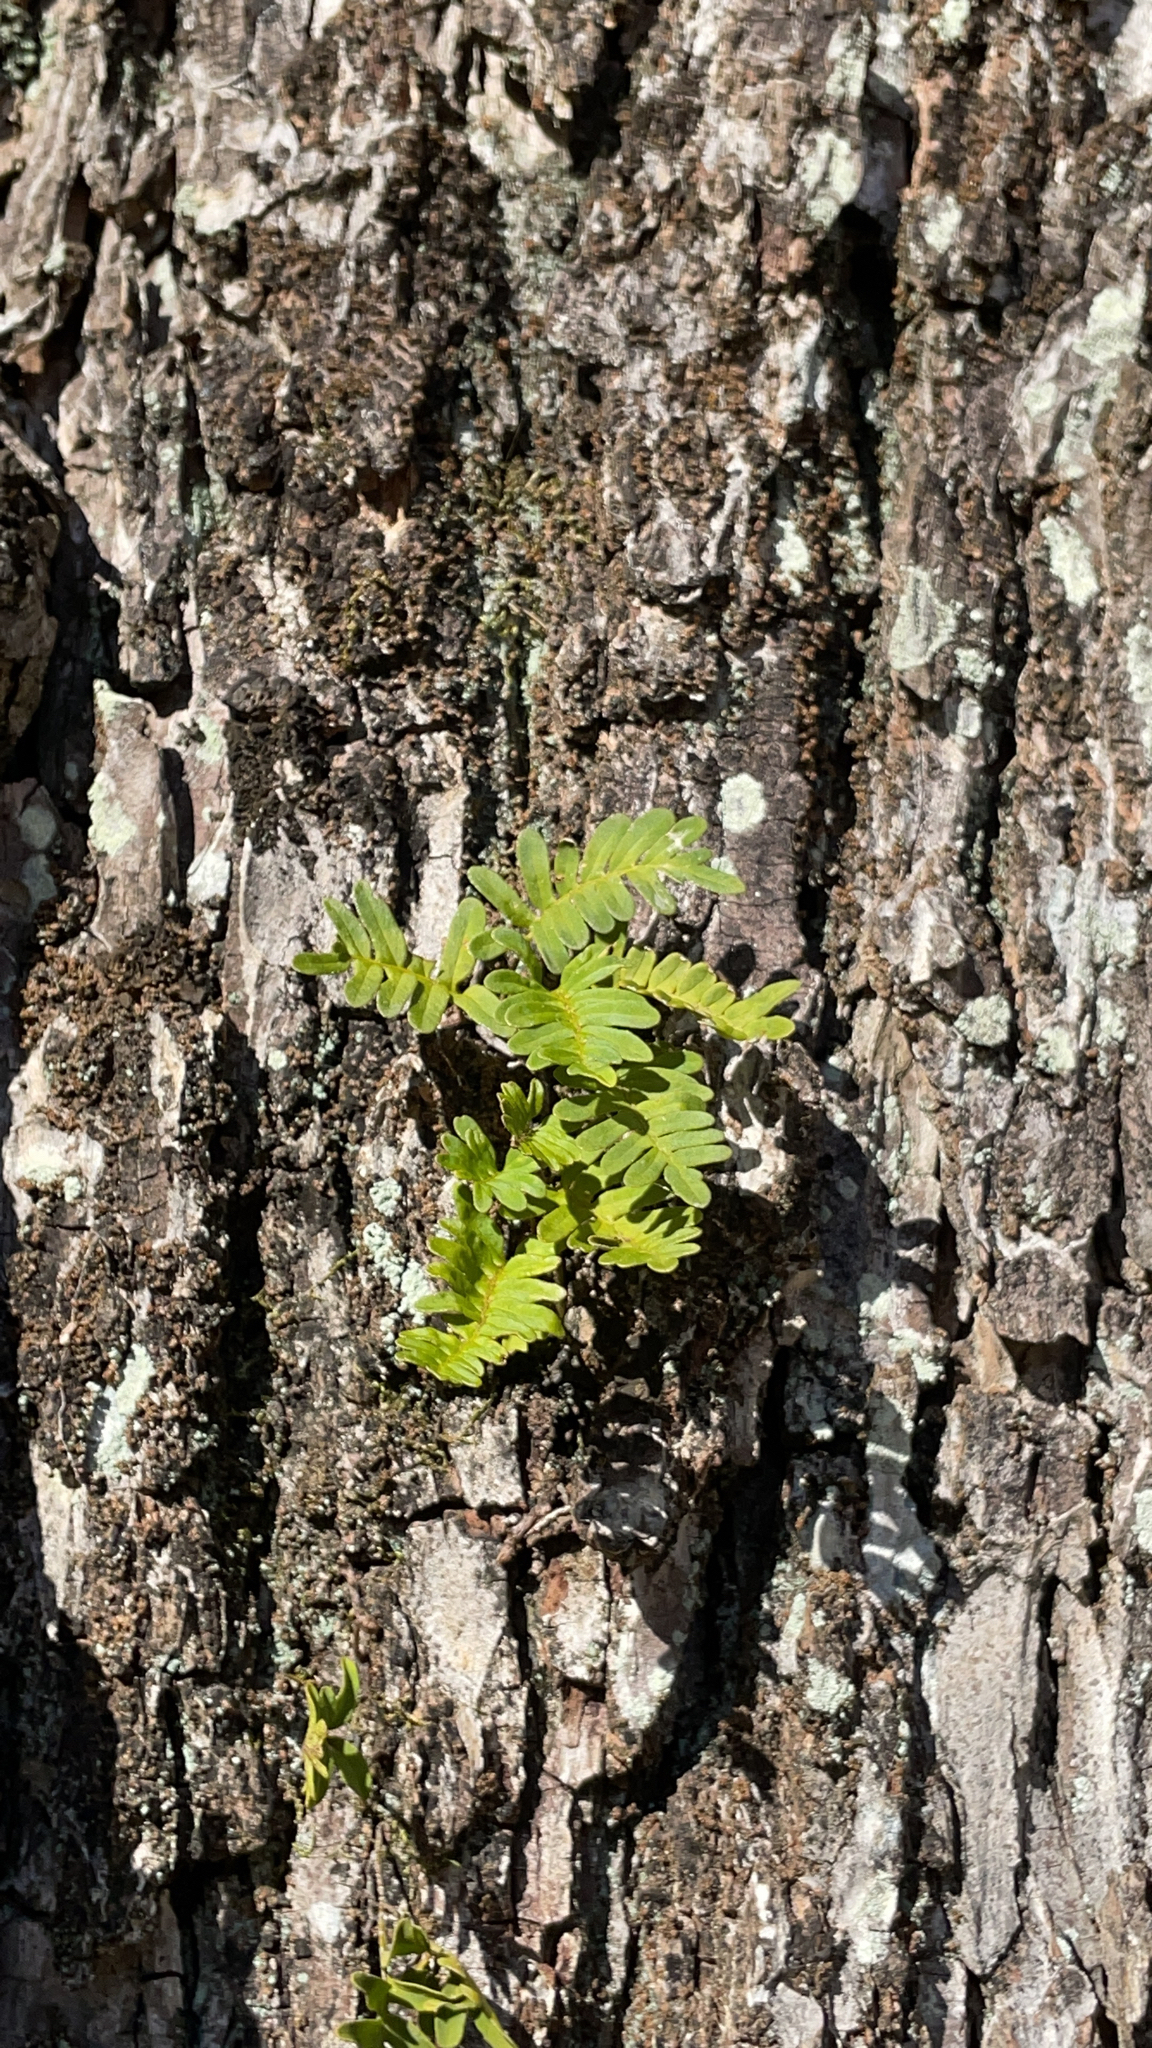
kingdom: Plantae
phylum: Tracheophyta
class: Polypodiopsida
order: Polypodiales
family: Polypodiaceae
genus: Pleopeltis
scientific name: Pleopeltis michauxiana
